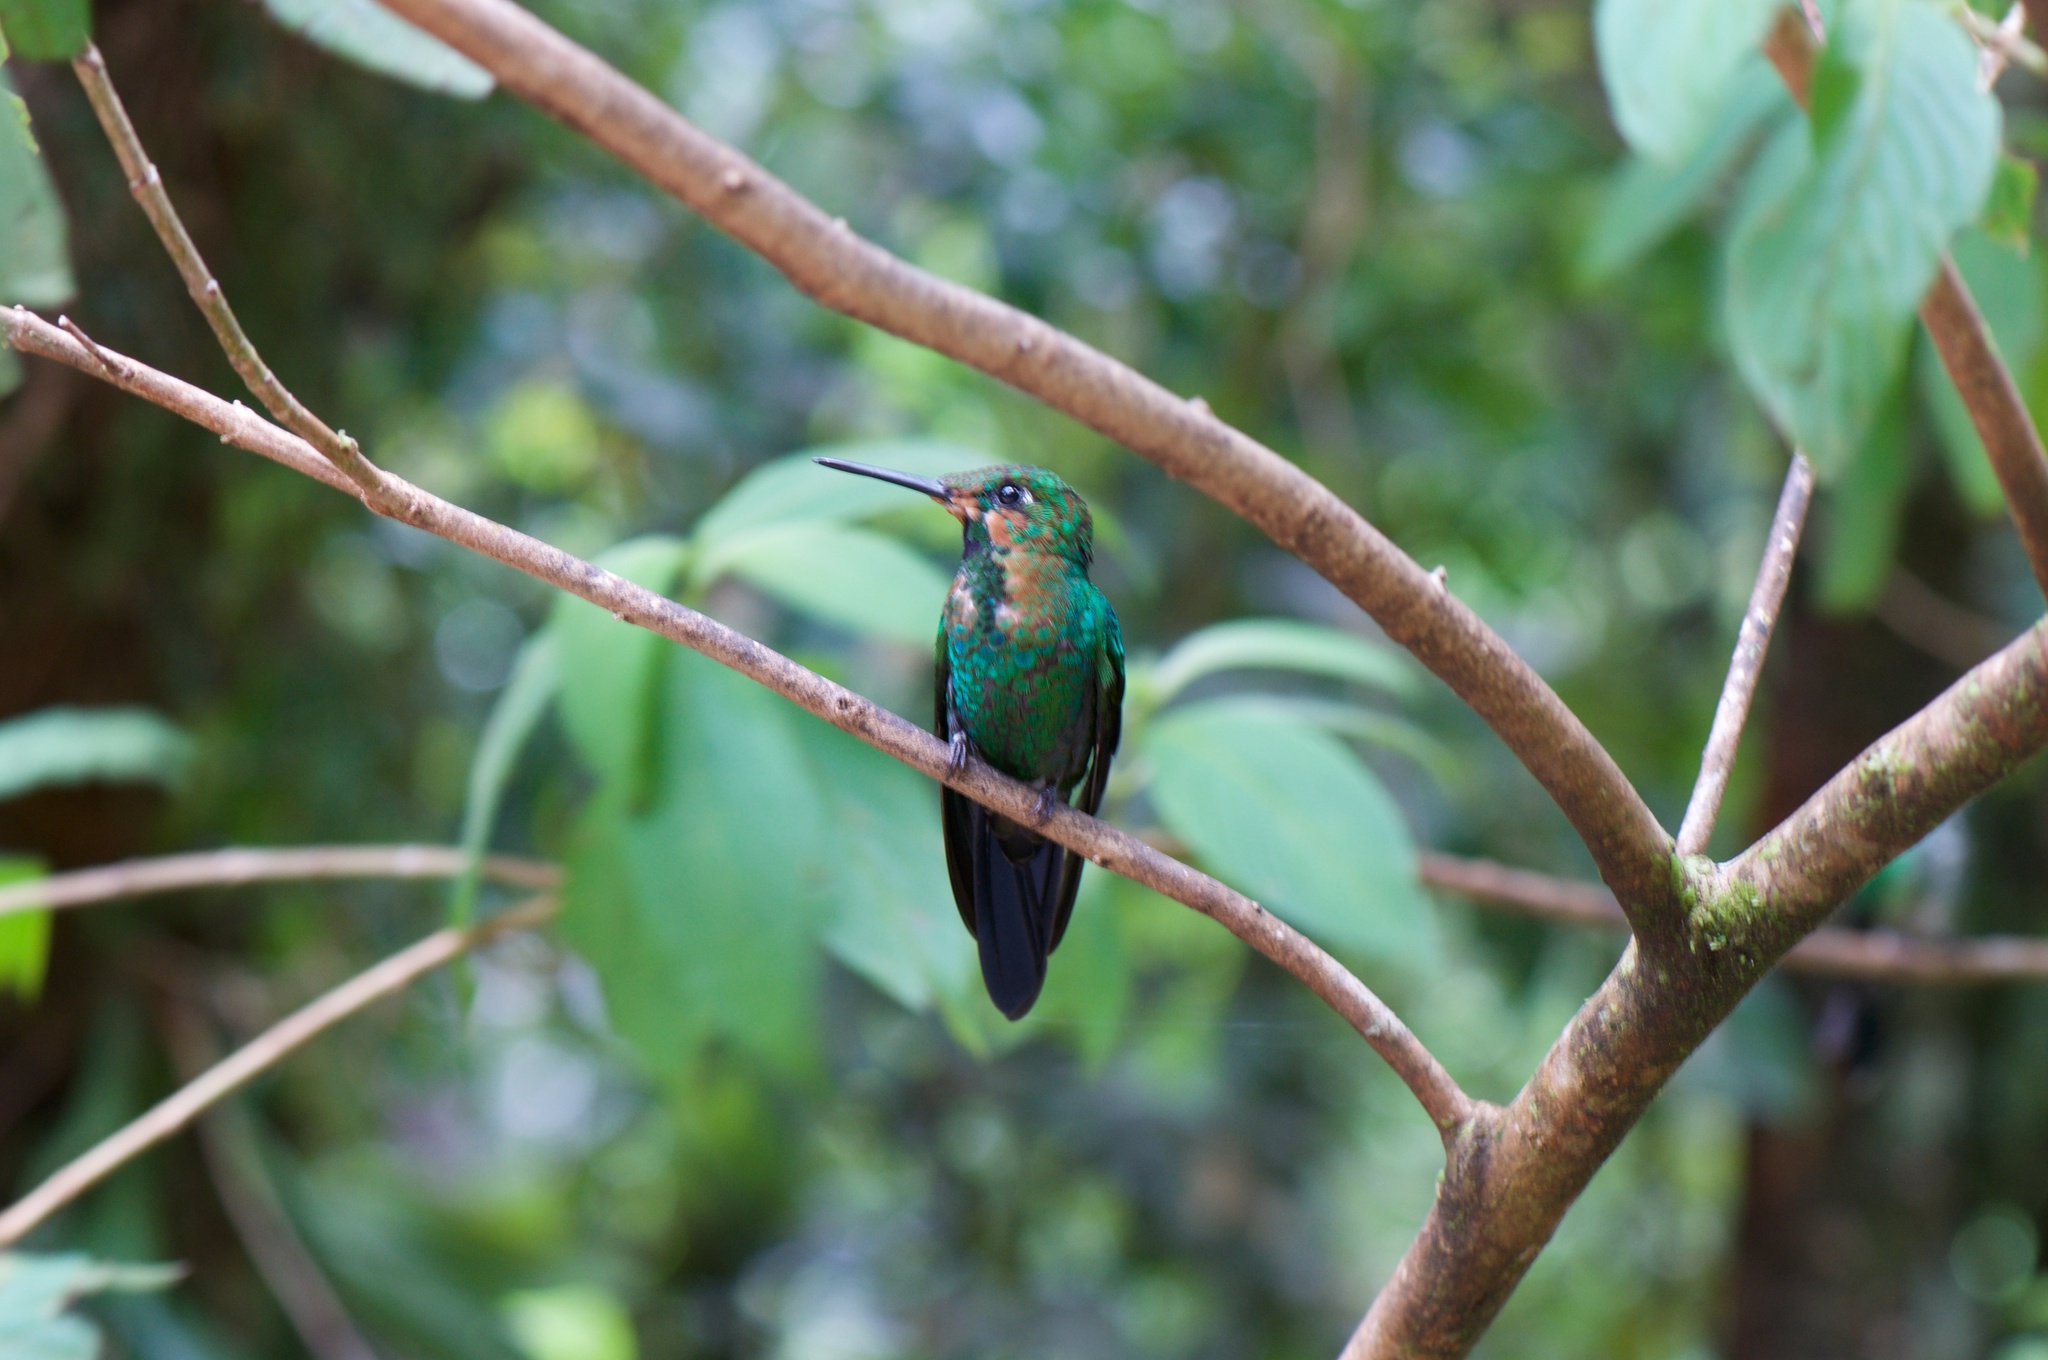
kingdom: Animalia
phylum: Chordata
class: Aves
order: Apodiformes
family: Trochilidae
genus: Heliodoxa
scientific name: Heliodoxa jacula
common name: Green-crowned brilliant
